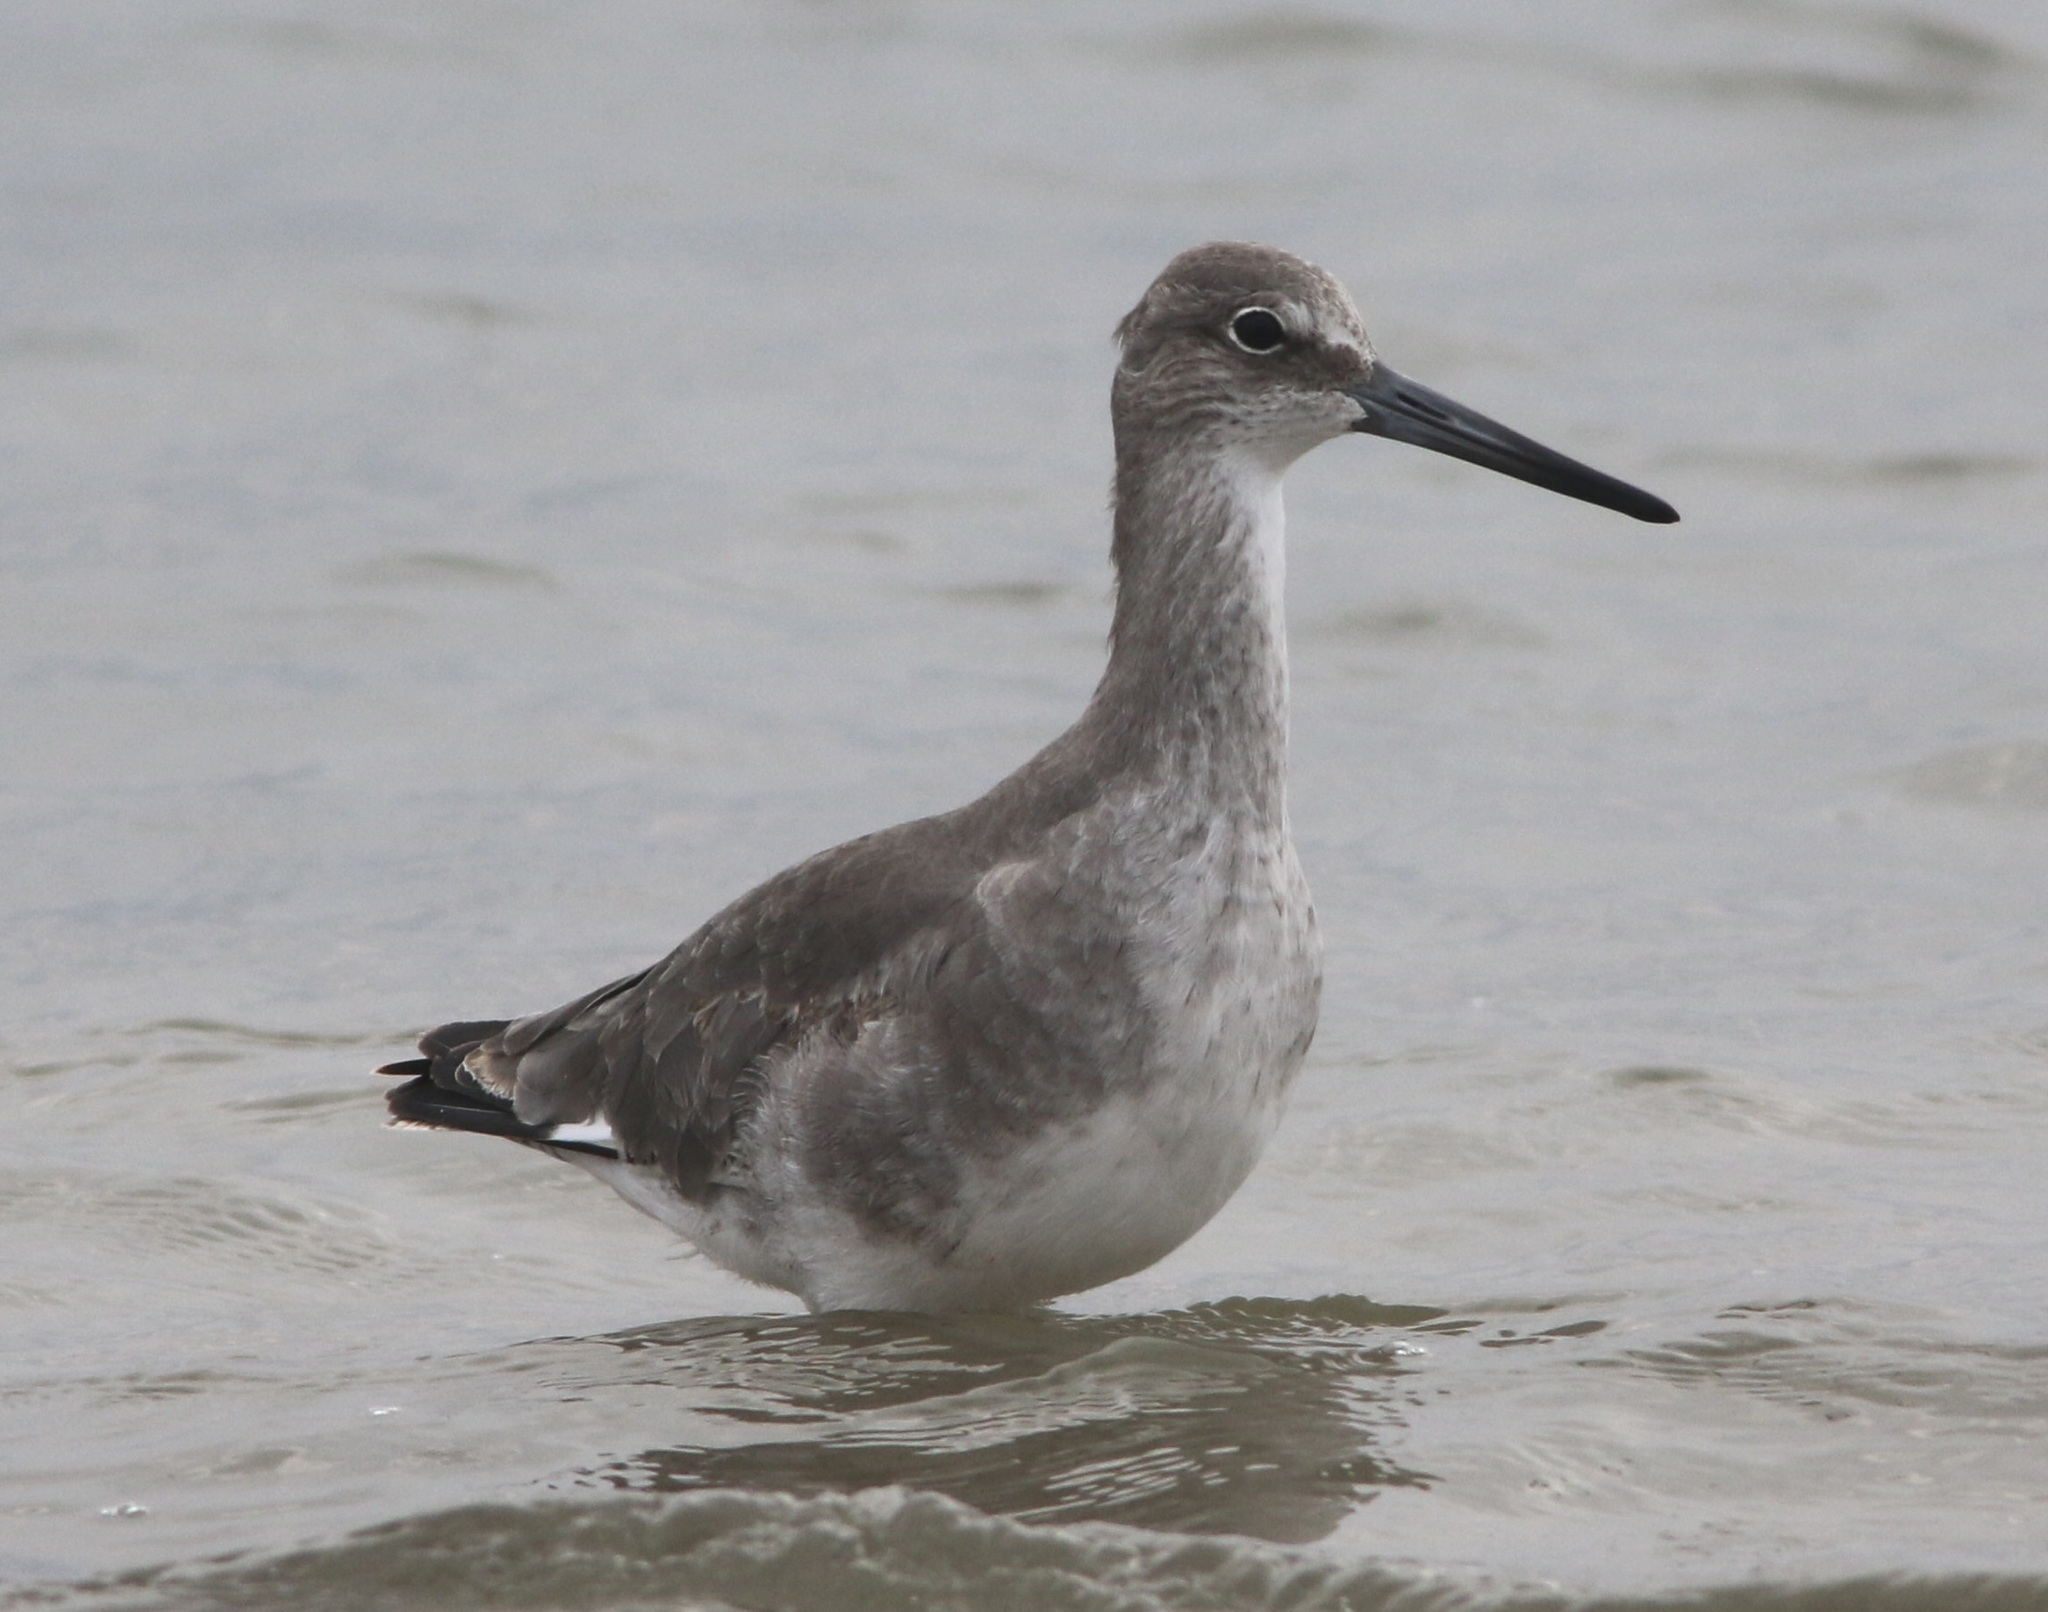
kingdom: Animalia
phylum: Chordata
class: Aves
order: Charadriiformes
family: Scolopacidae
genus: Tringa
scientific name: Tringa semipalmata
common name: Willet
